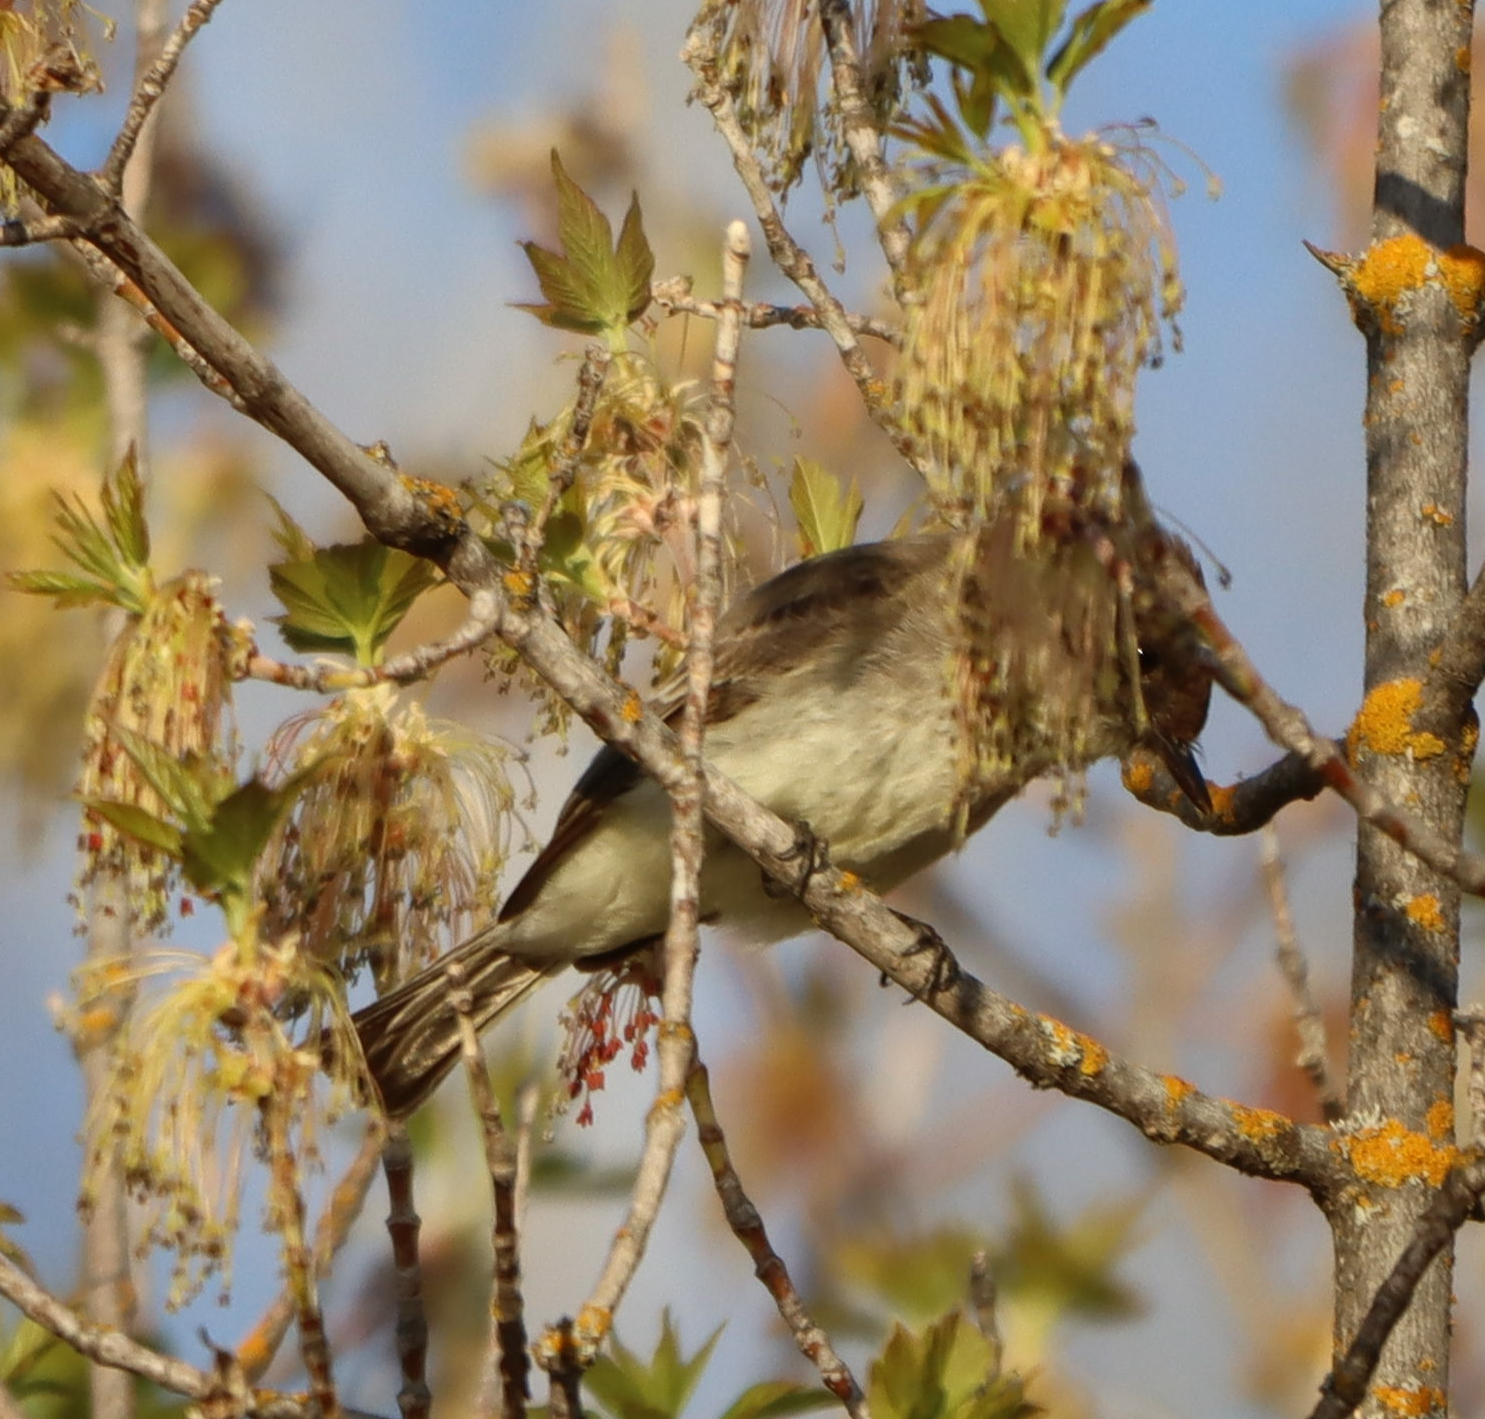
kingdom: Animalia
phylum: Chordata
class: Aves
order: Passeriformes
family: Tyrannidae
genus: Sayornis
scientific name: Sayornis phoebe
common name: Eastern phoebe
